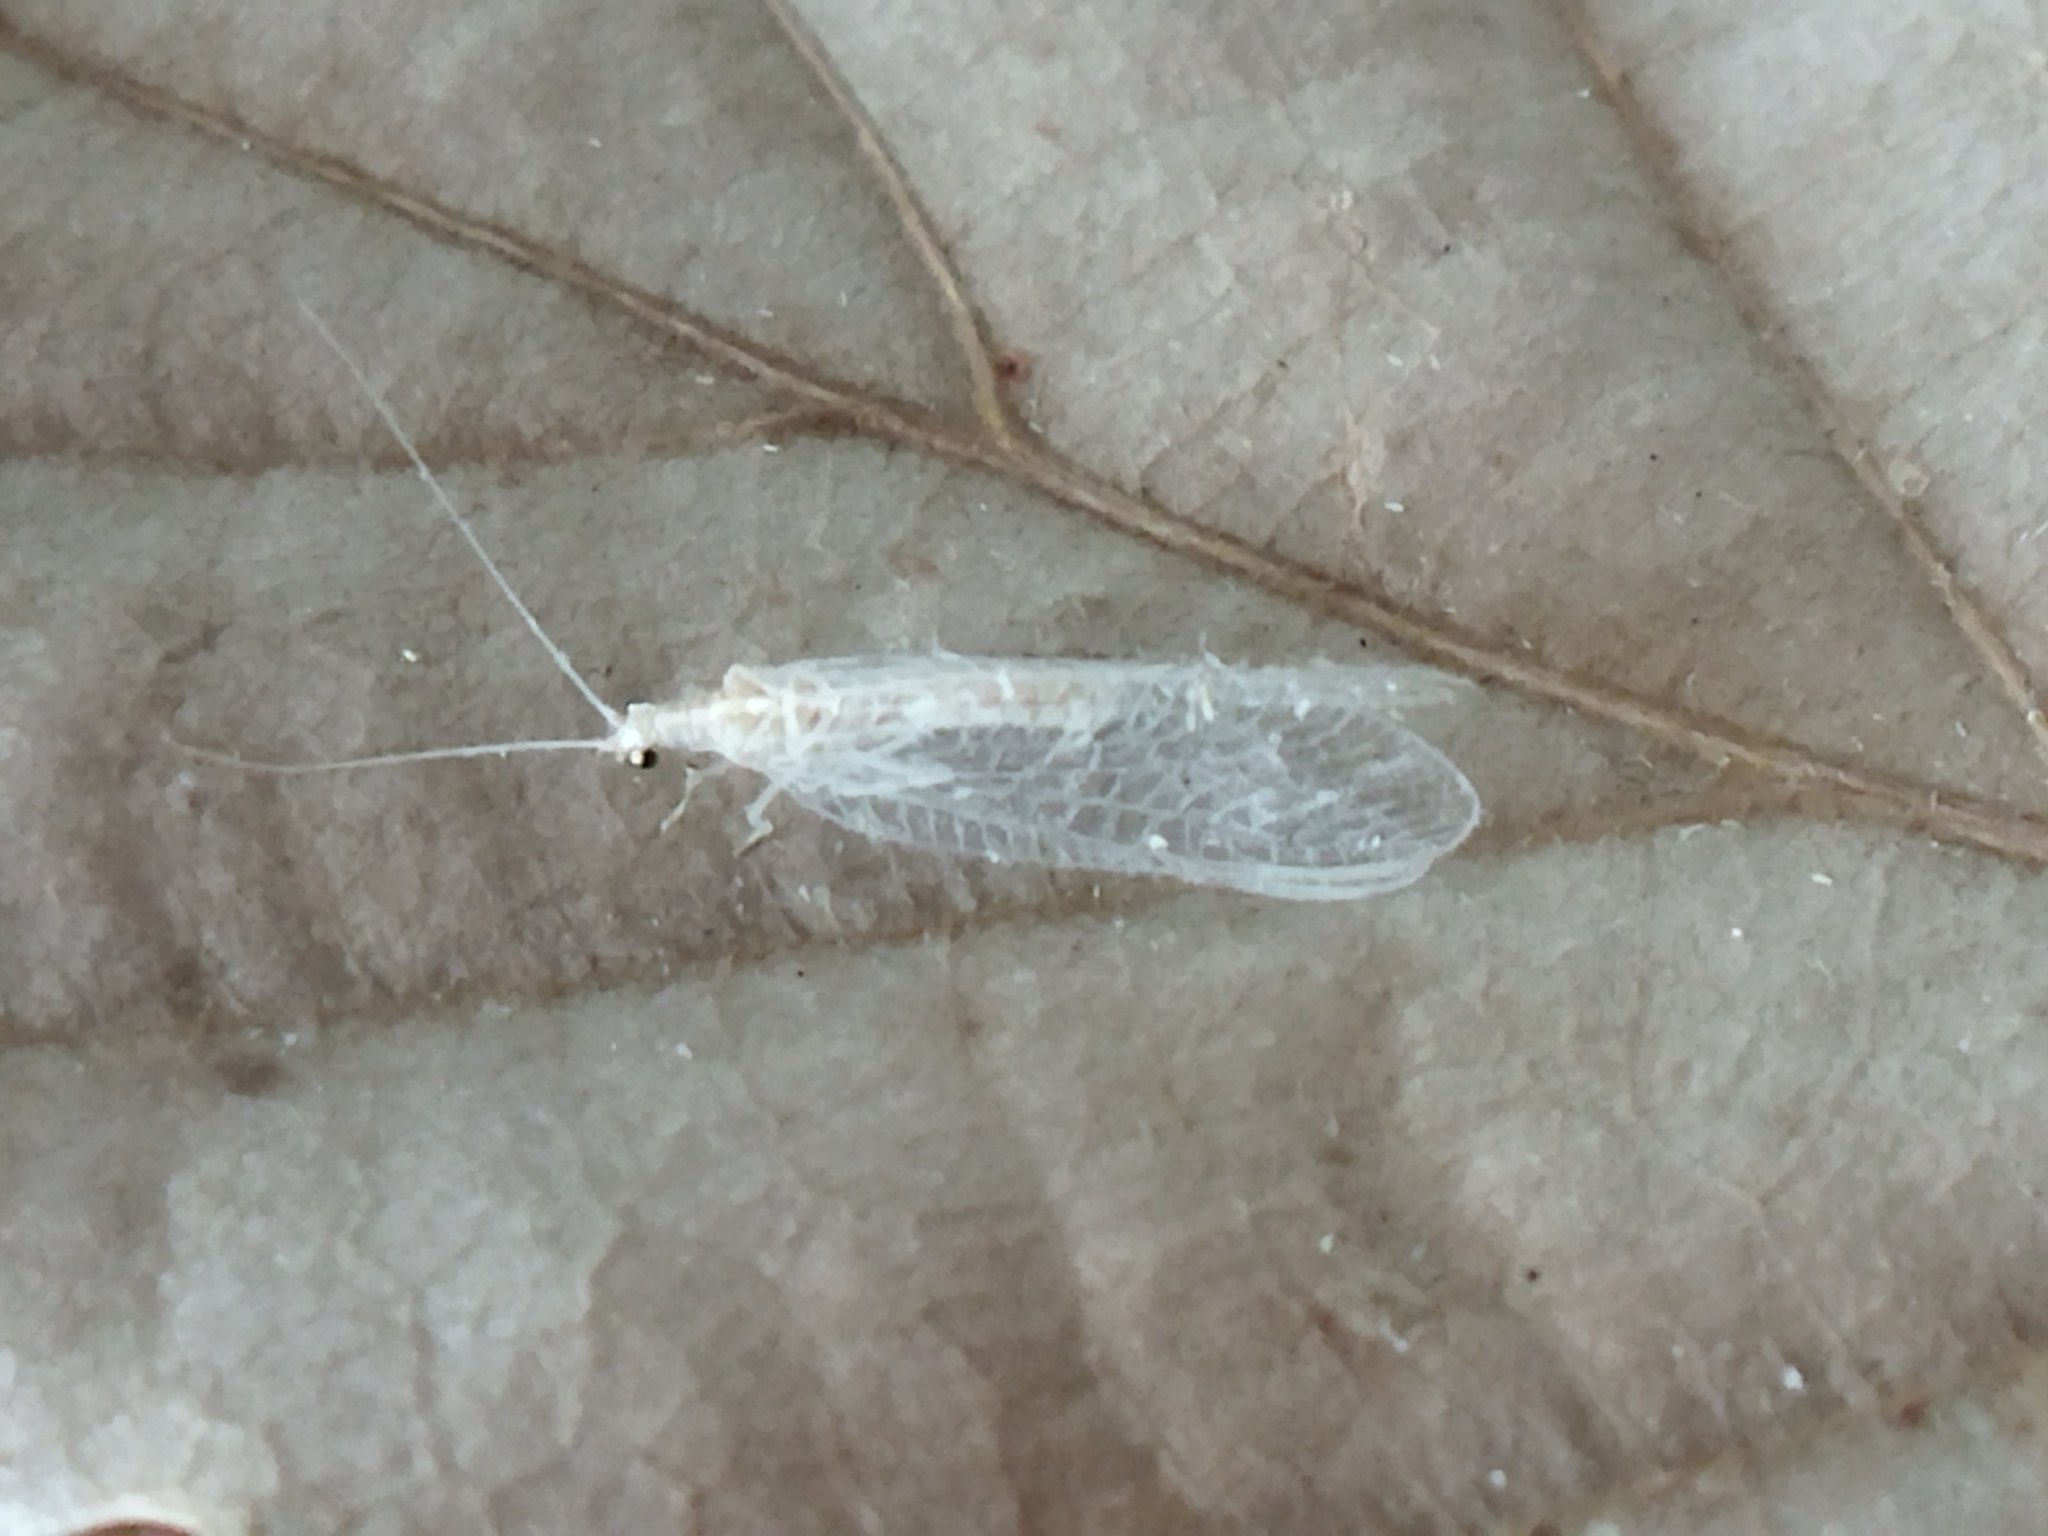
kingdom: Animalia
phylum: Arthropoda
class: Insecta
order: Neuroptera
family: Chrysopidae
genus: Chrysoperla
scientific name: Chrysoperla
